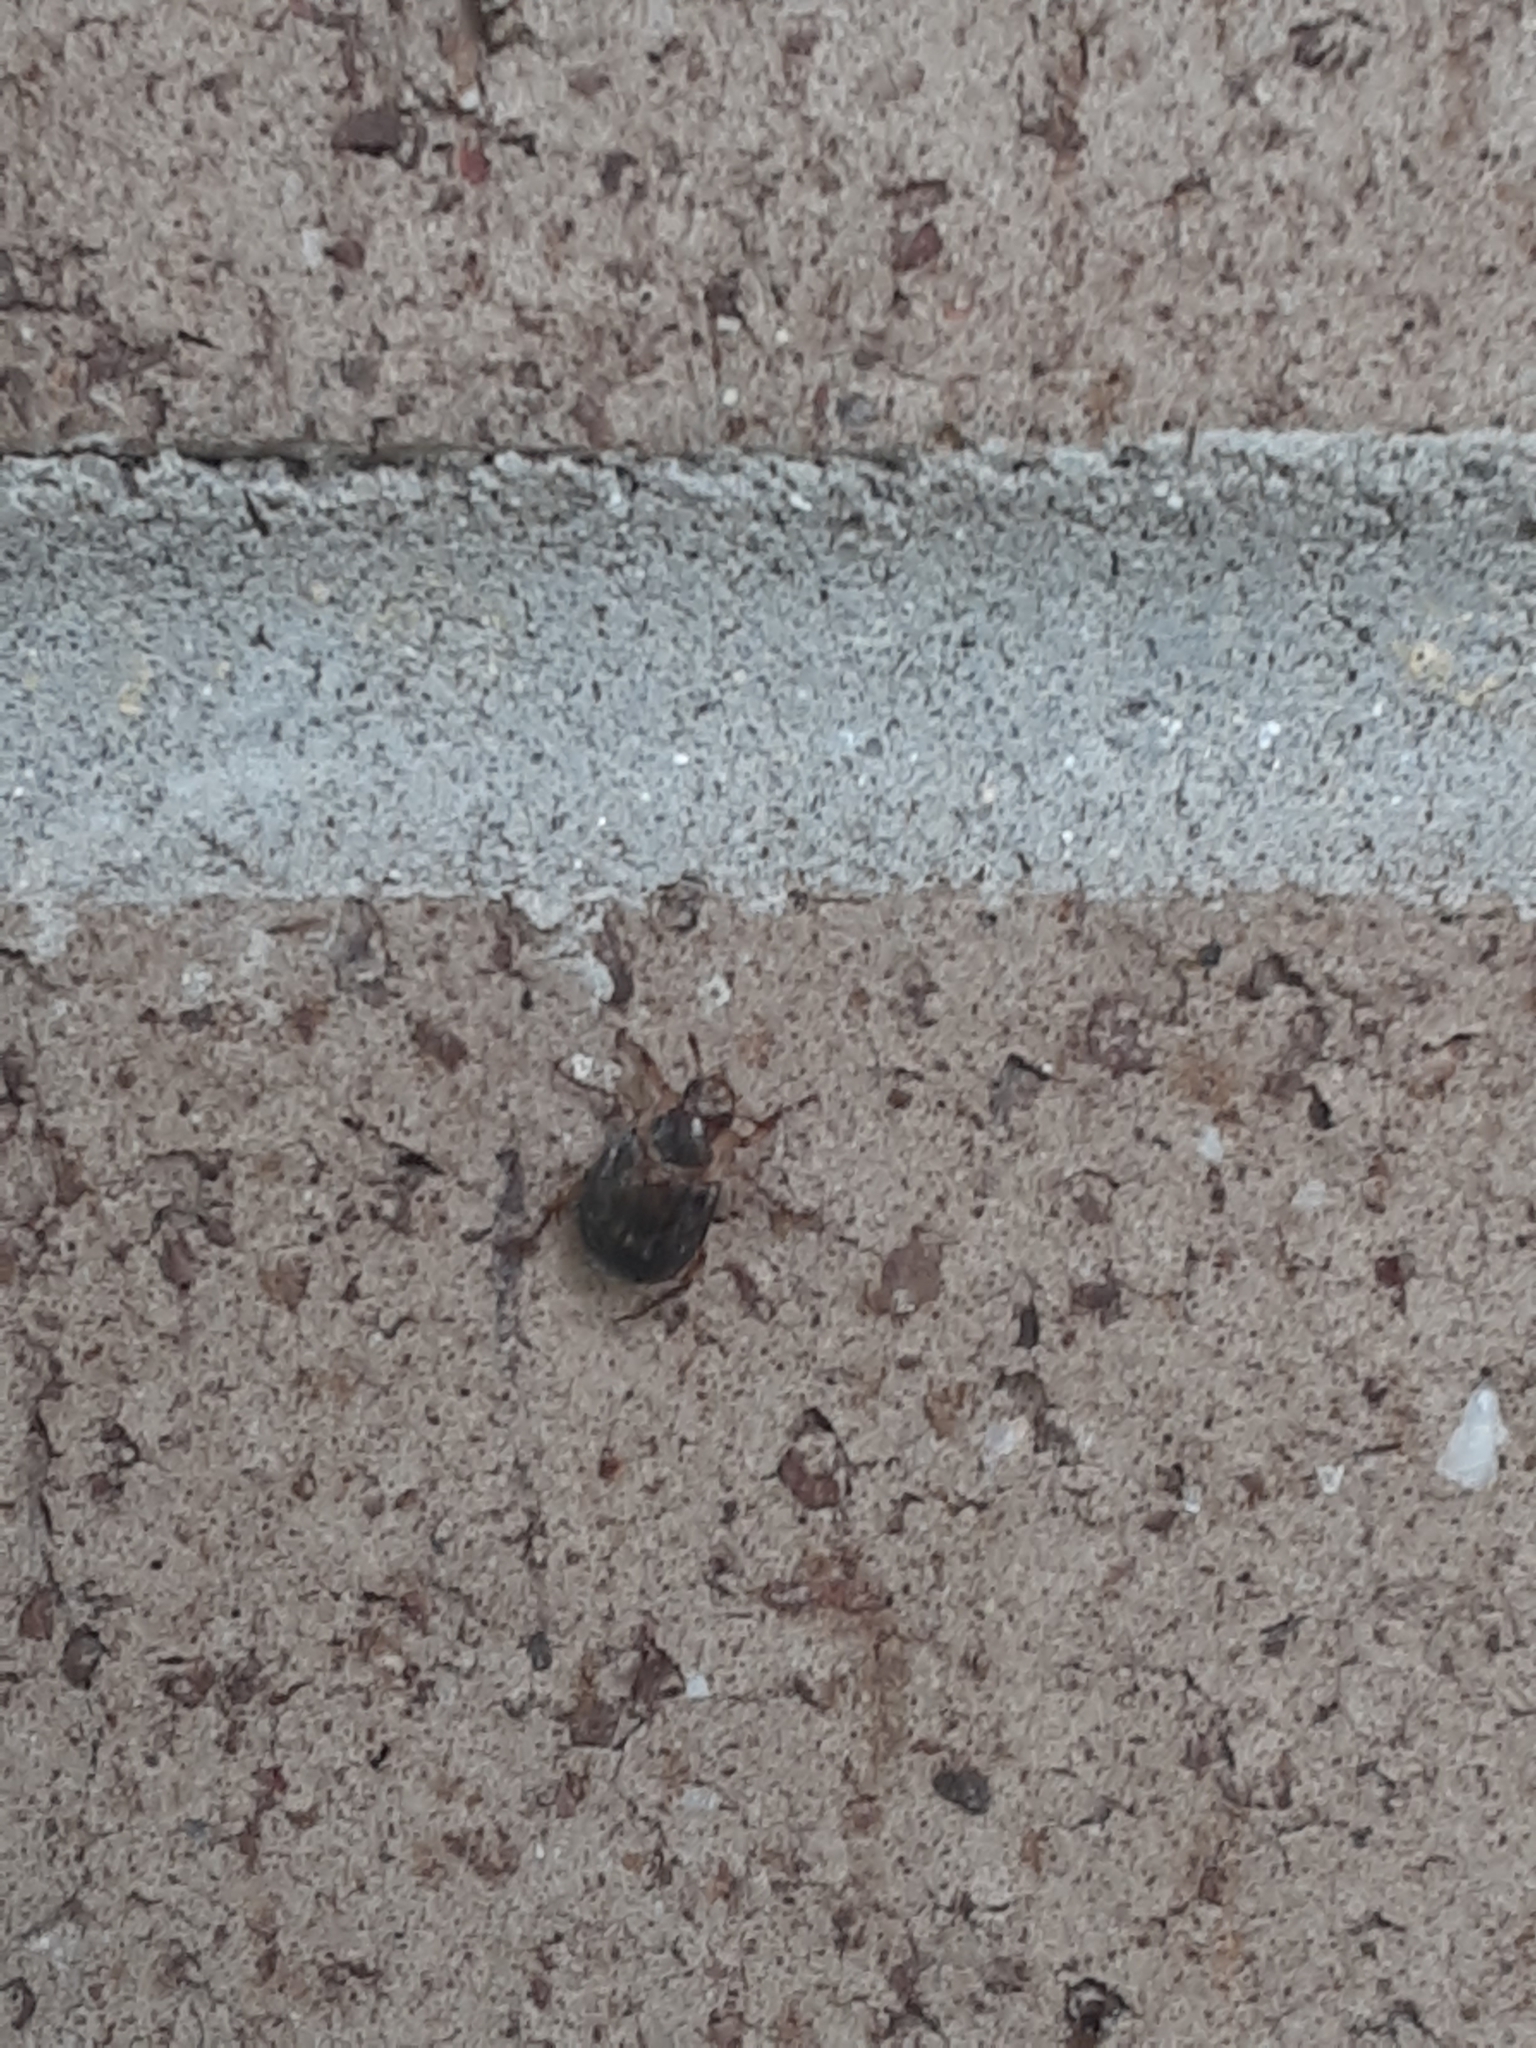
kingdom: Animalia
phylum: Arthropoda
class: Insecta
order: Coleoptera
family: Scarabaeidae
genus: Exomala
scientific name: Exomala orientalis
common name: Oriental beetle
